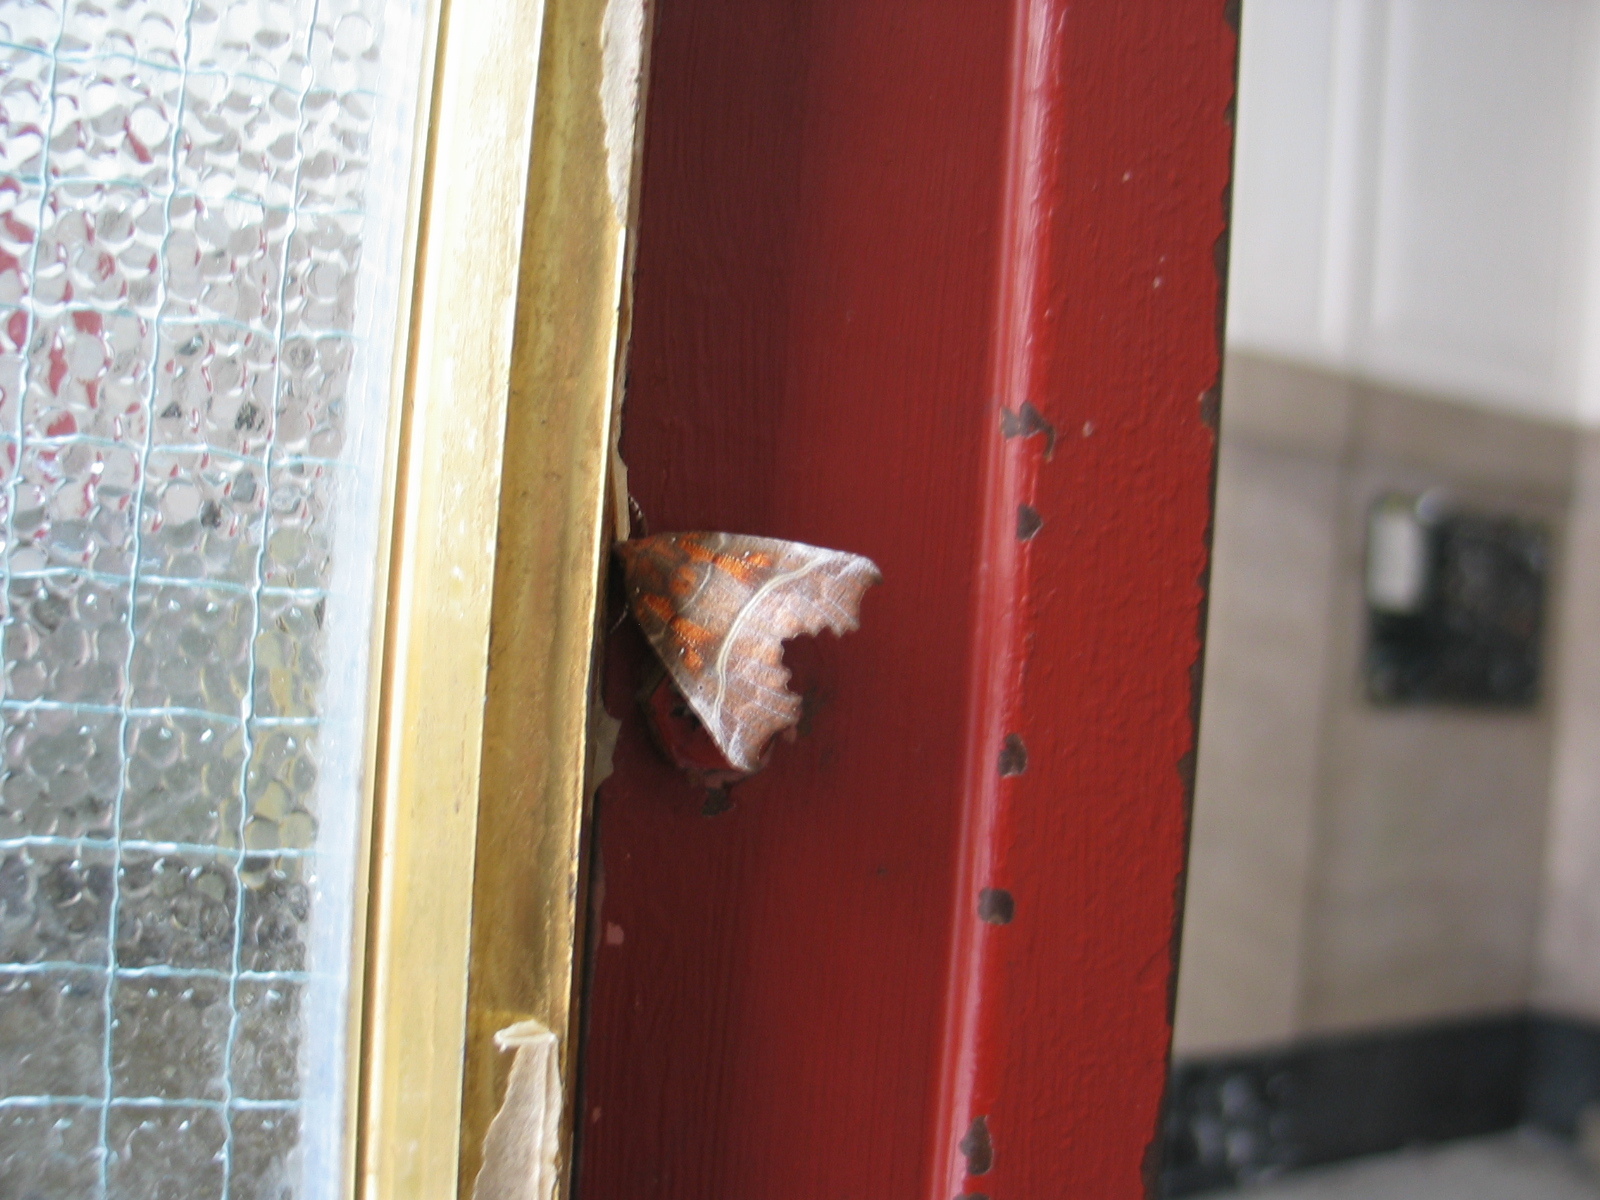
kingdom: Animalia
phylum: Arthropoda
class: Insecta
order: Lepidoptera
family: Erebidae
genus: Scoliopteryx
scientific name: Scoliopteryx libatrix
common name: Herald
